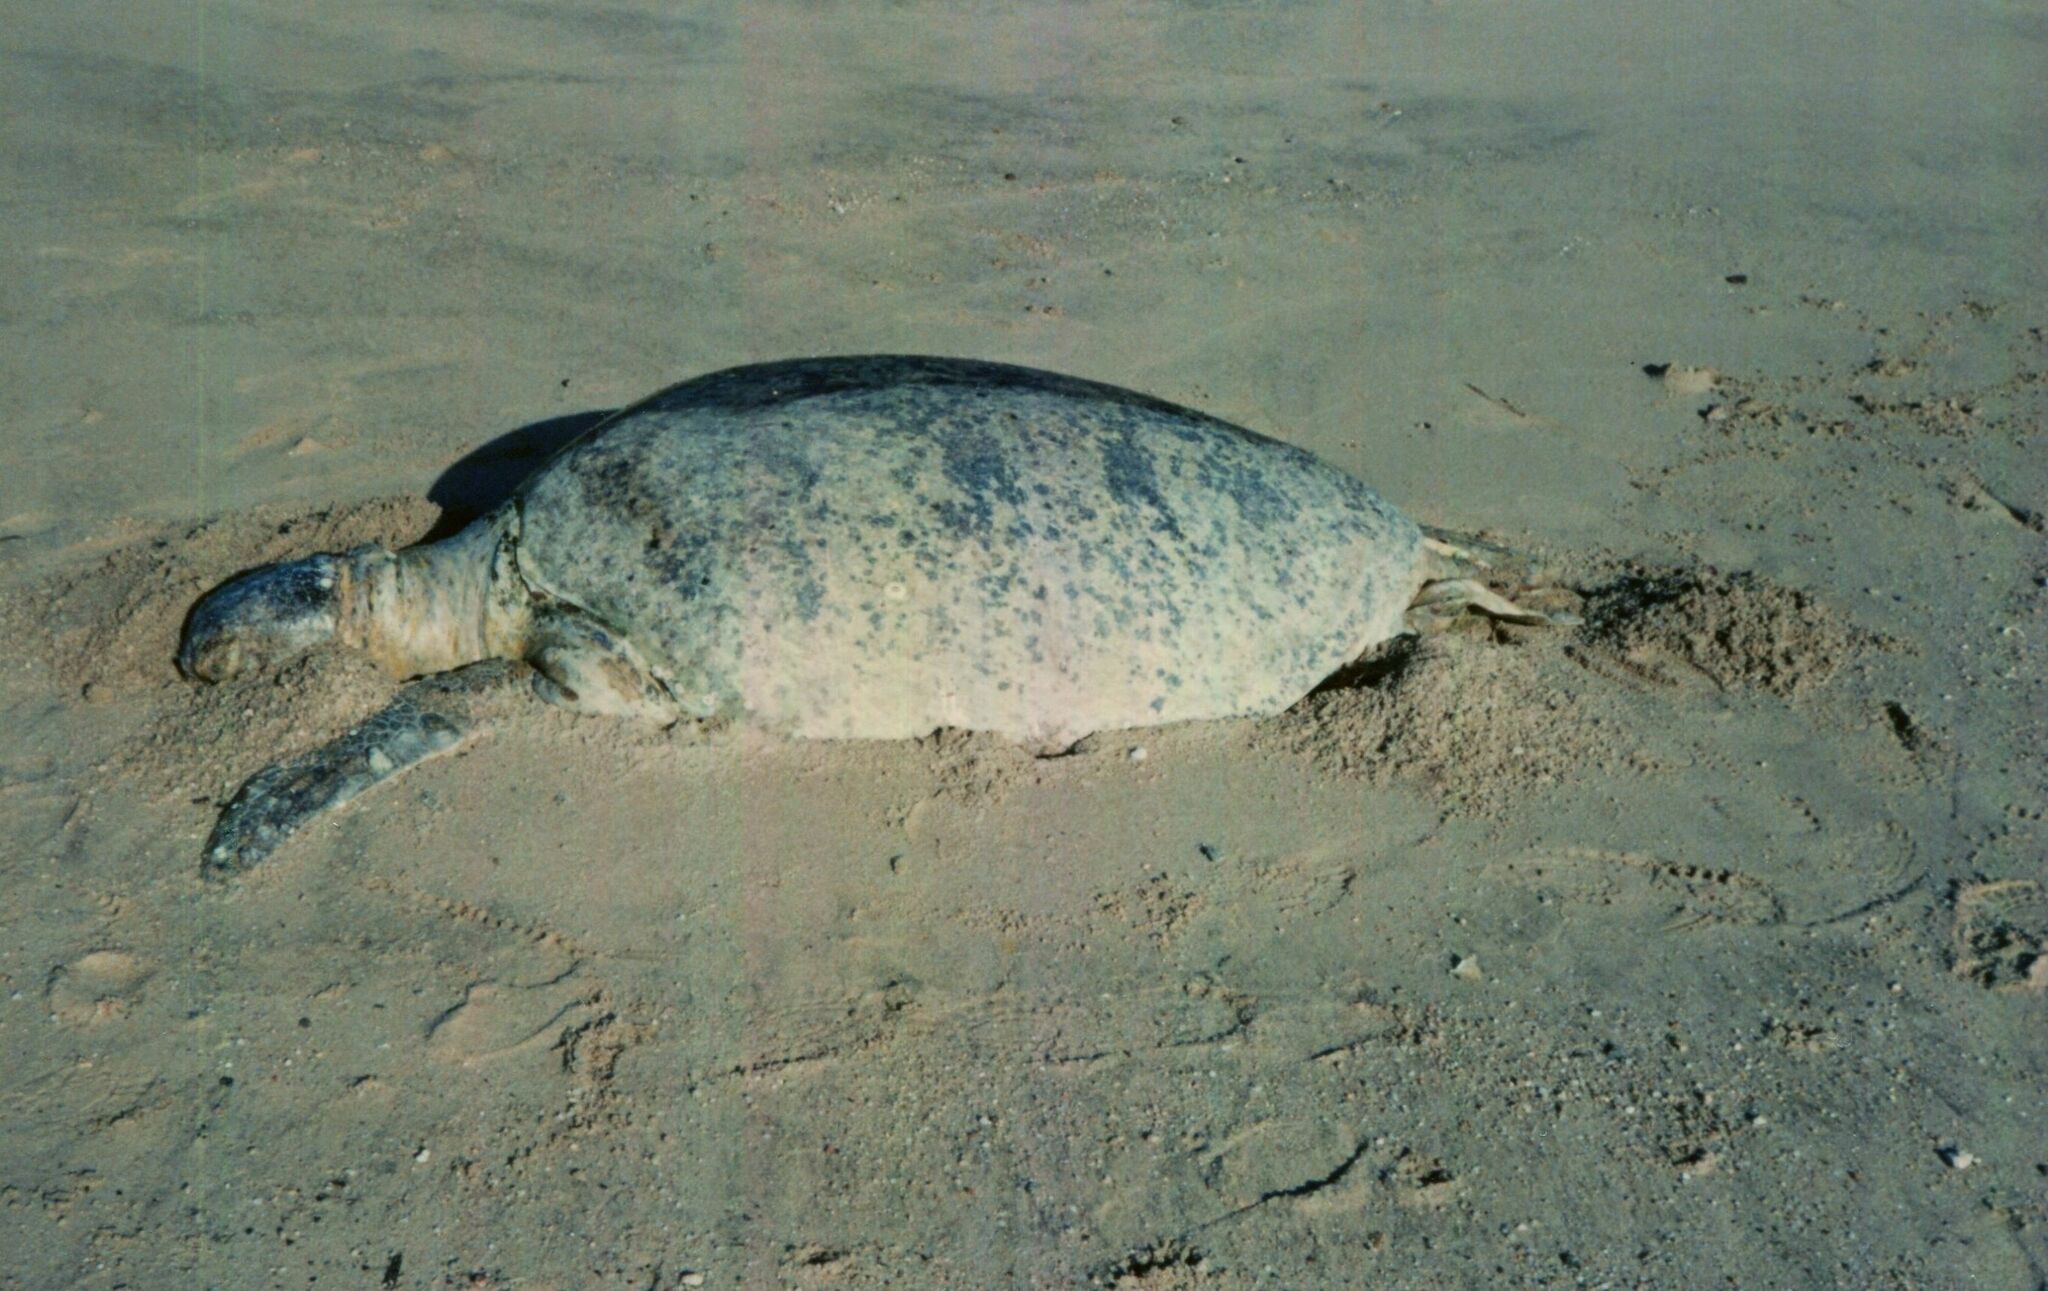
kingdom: Animalia
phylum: Chordata
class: Testudines
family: Cheloniidae
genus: Chelonia
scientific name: Chelonia mydas
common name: Green turtle
